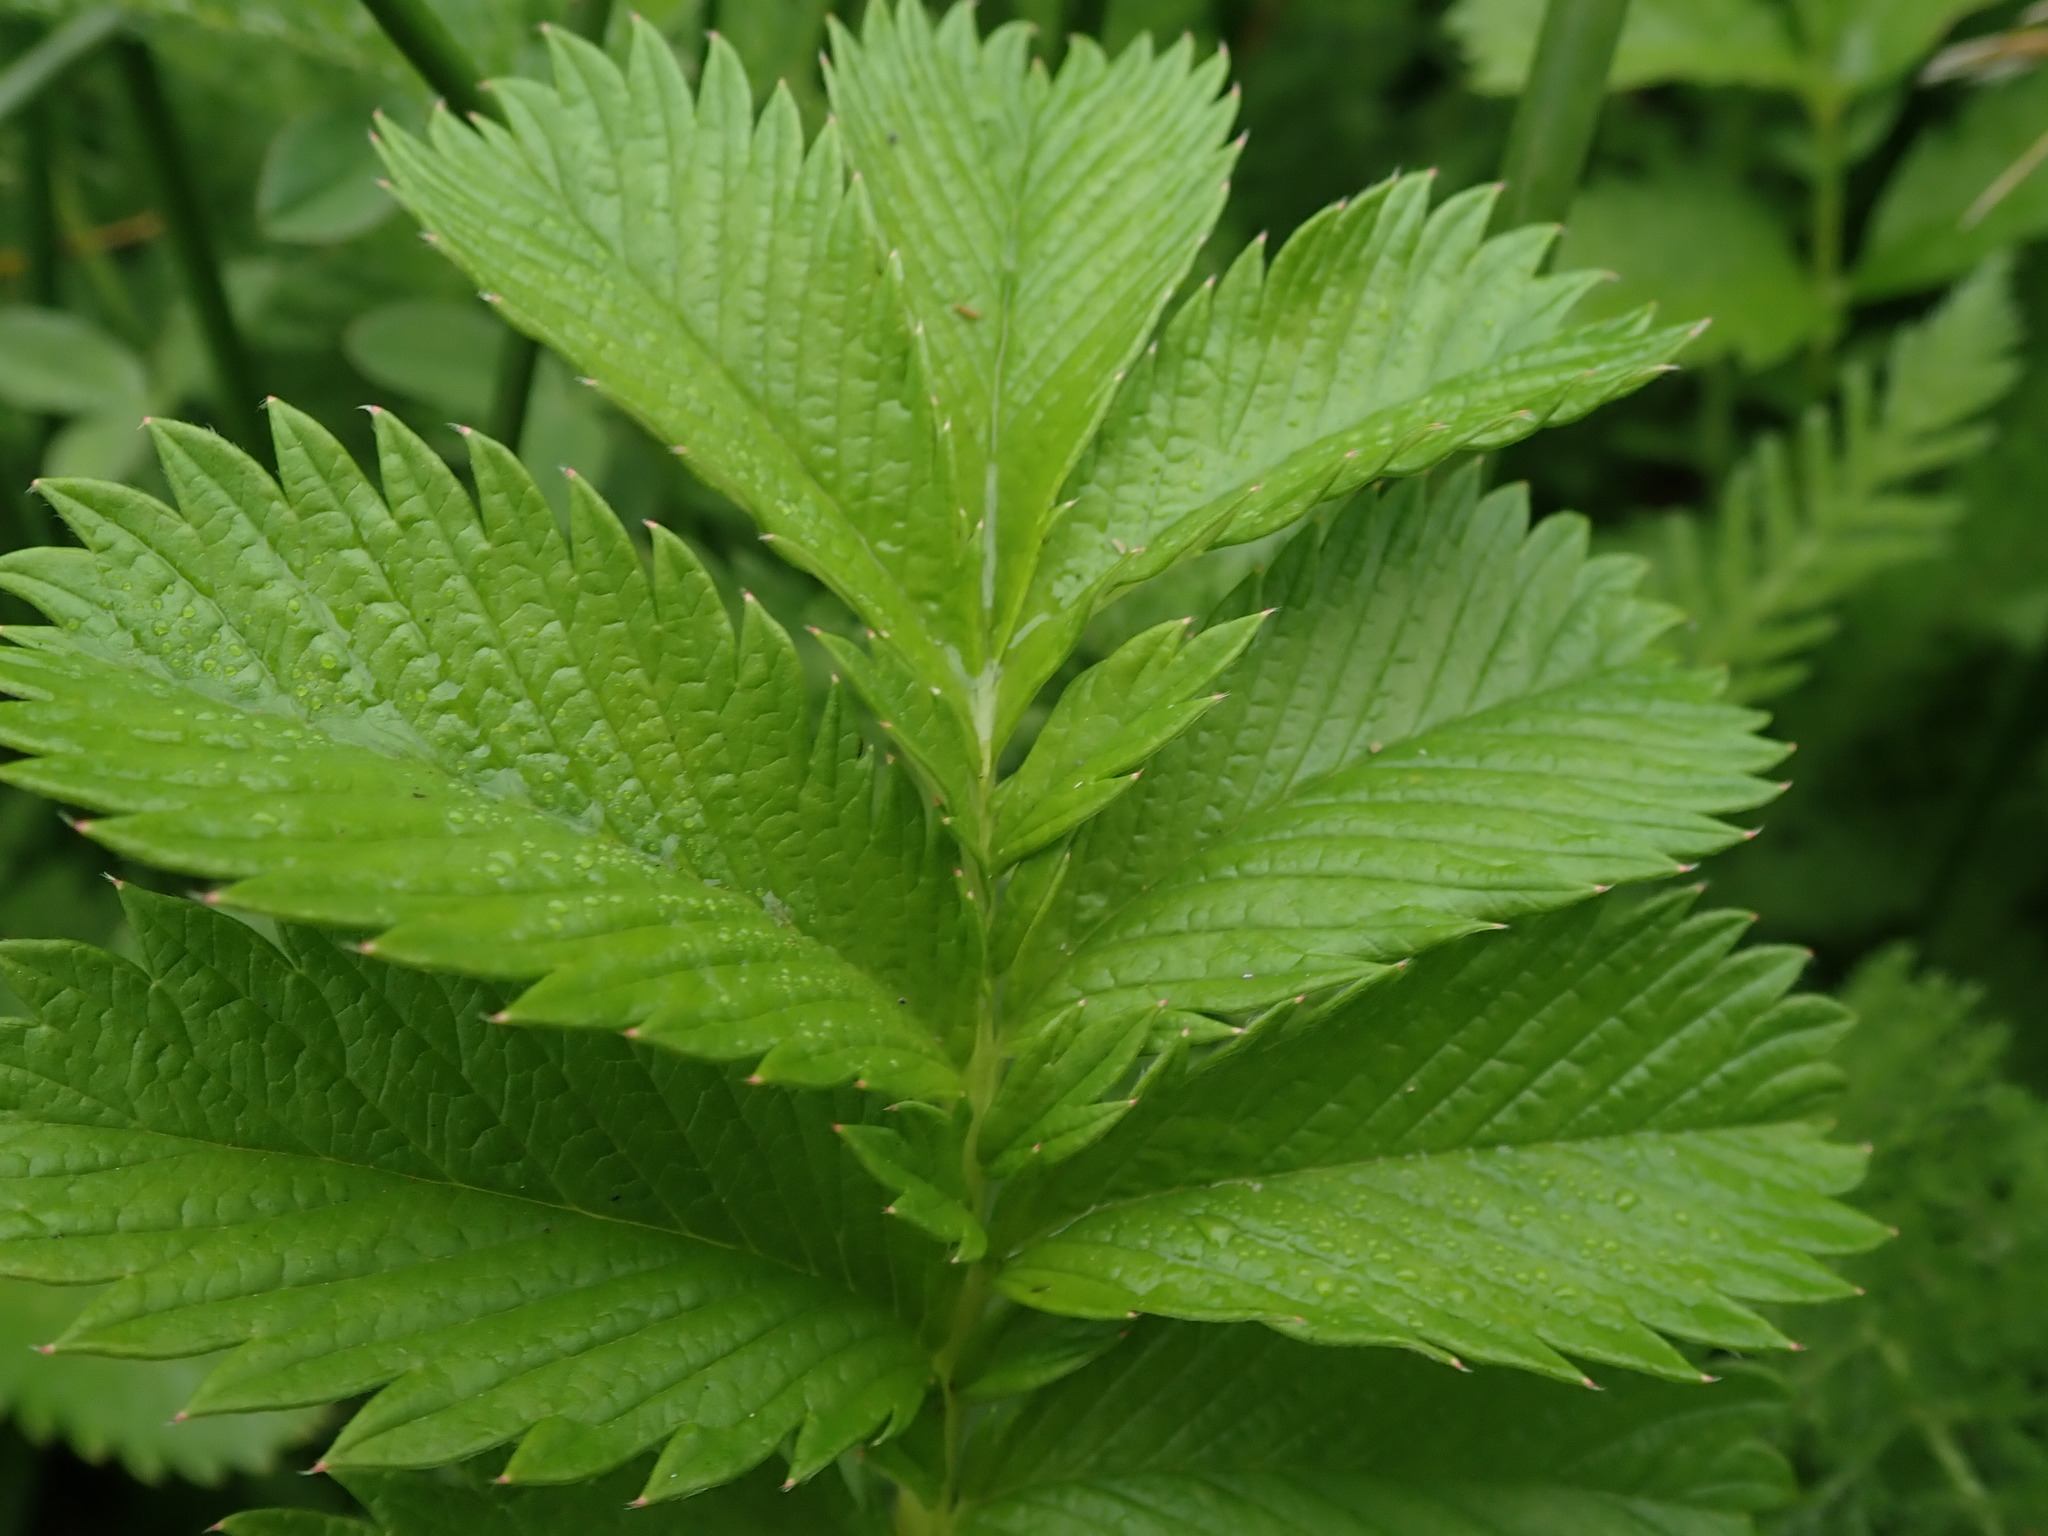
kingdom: Plantae
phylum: Tracheophyta
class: Magnoliopsida
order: Rosales
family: Rosaceae
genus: Argentina
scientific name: Argentina anserina
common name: Common silverweed
